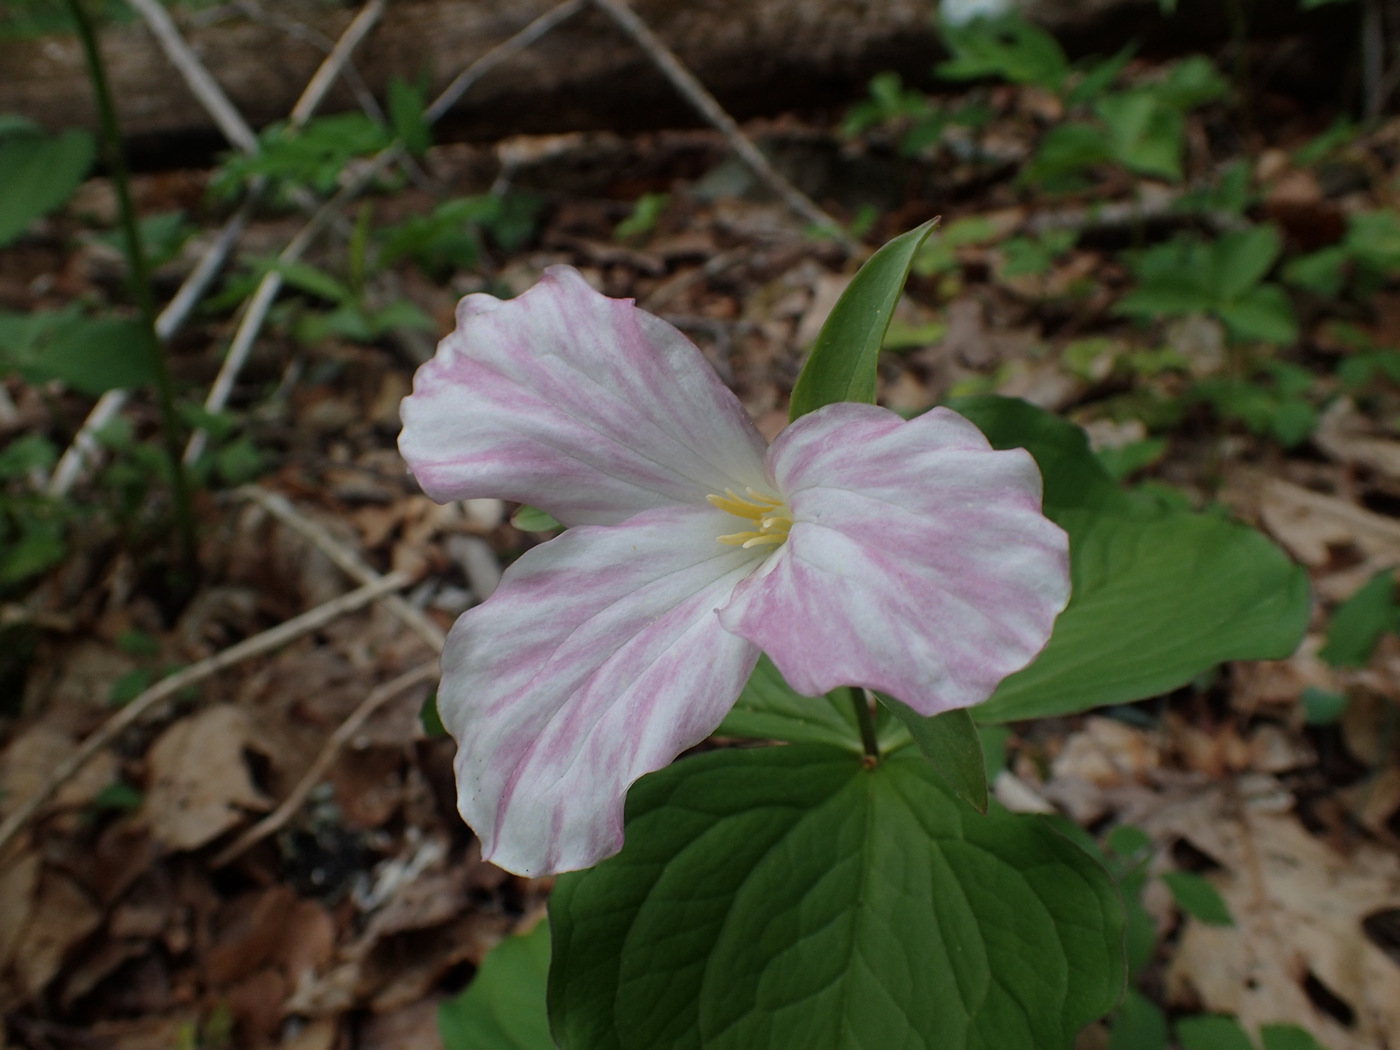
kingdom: Plantae
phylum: Tracheophyta
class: Liliopsida
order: Liliales
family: Melanthiaceae
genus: Trillium
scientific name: Trillium grandiflorum
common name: Great white trillium
